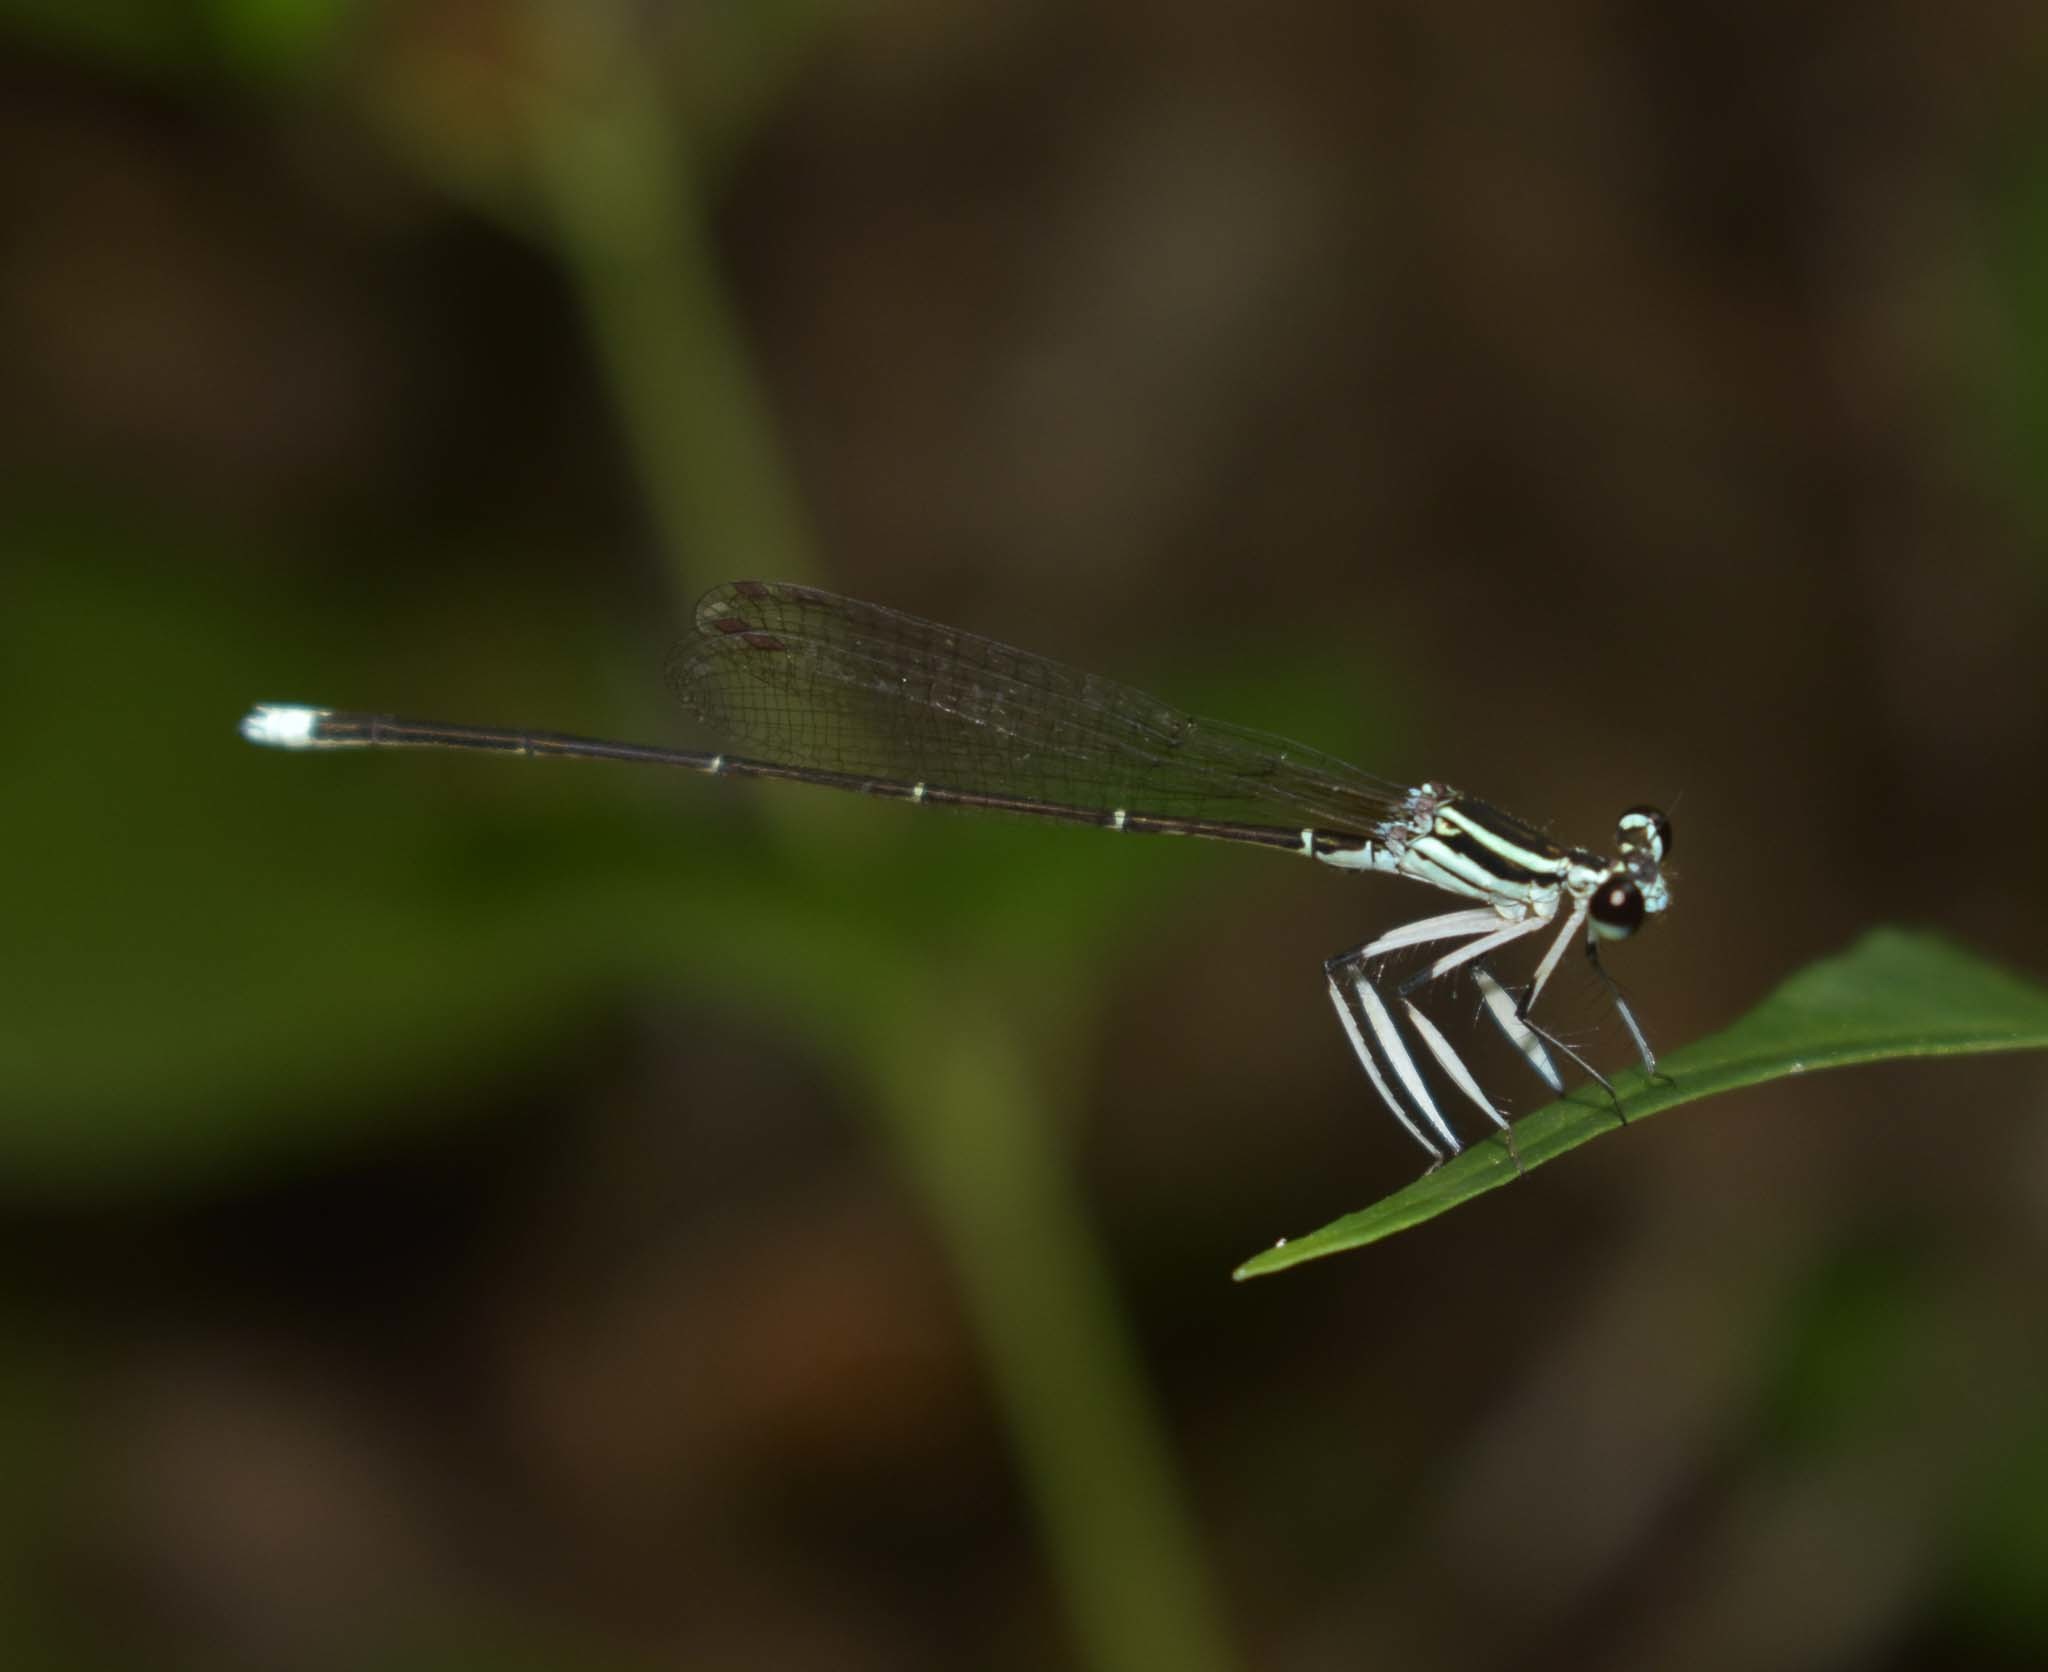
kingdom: Animalia
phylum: Arthropoda
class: Insecta
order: Odonata
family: Platycnemididae
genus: Pseudocopera
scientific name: Pseudocopera ciliata
